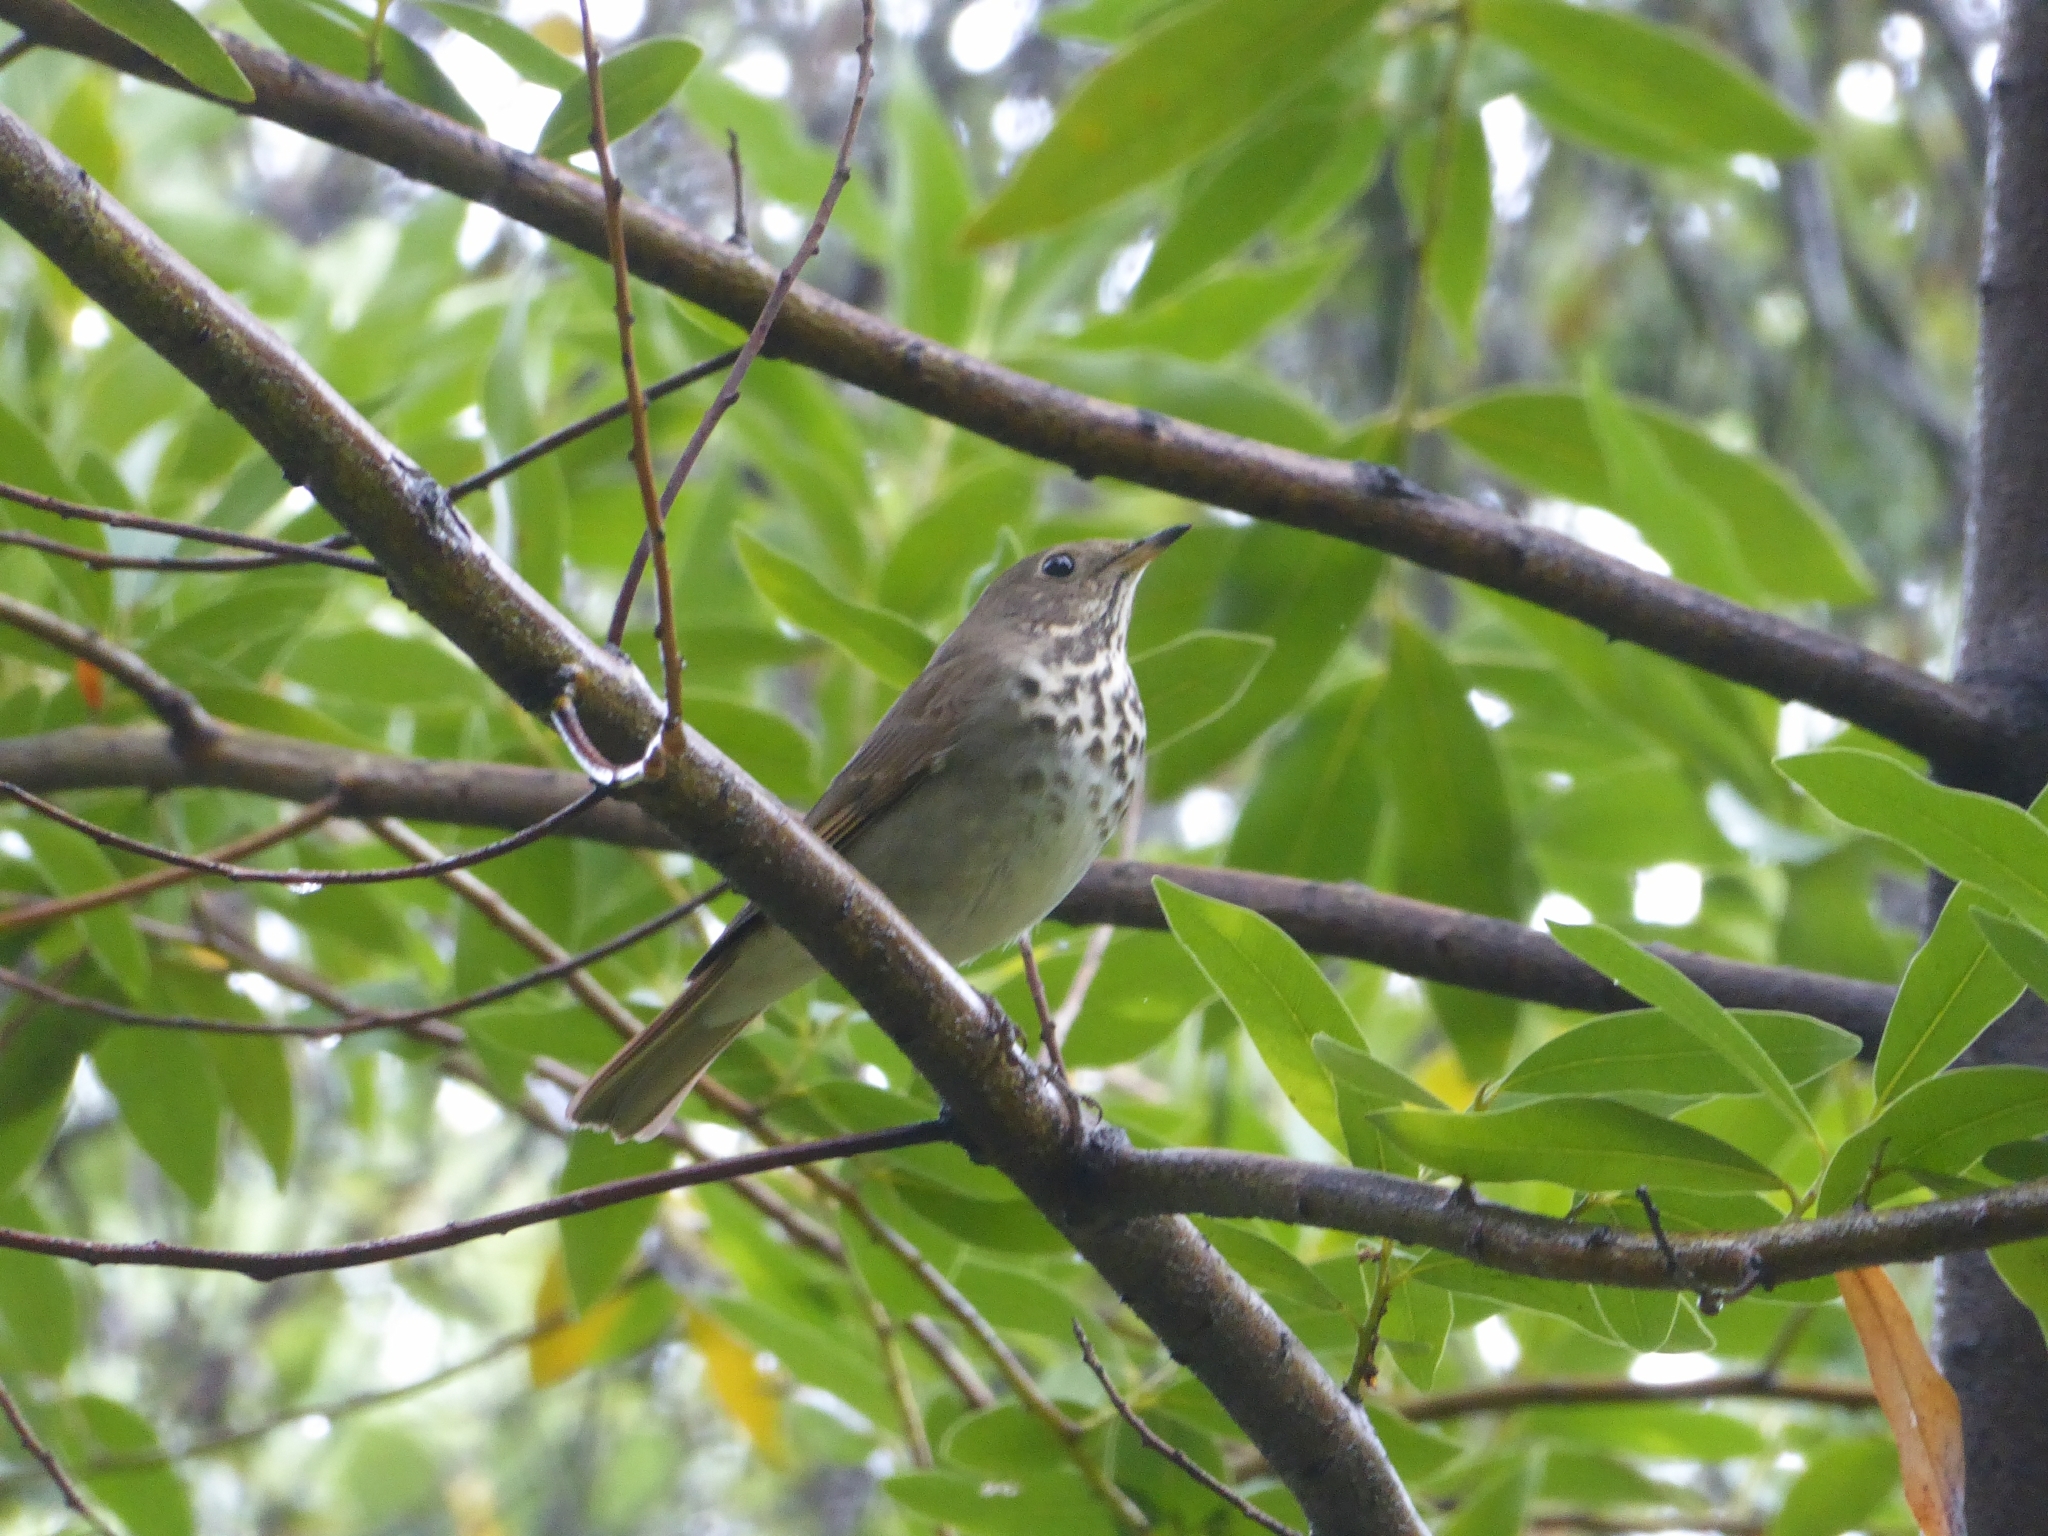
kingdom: Animalia
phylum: Chordata
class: Aves
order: Passeriformes
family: Turdidae
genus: Catharus
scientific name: Catharus guttatus
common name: Hermit thrush
